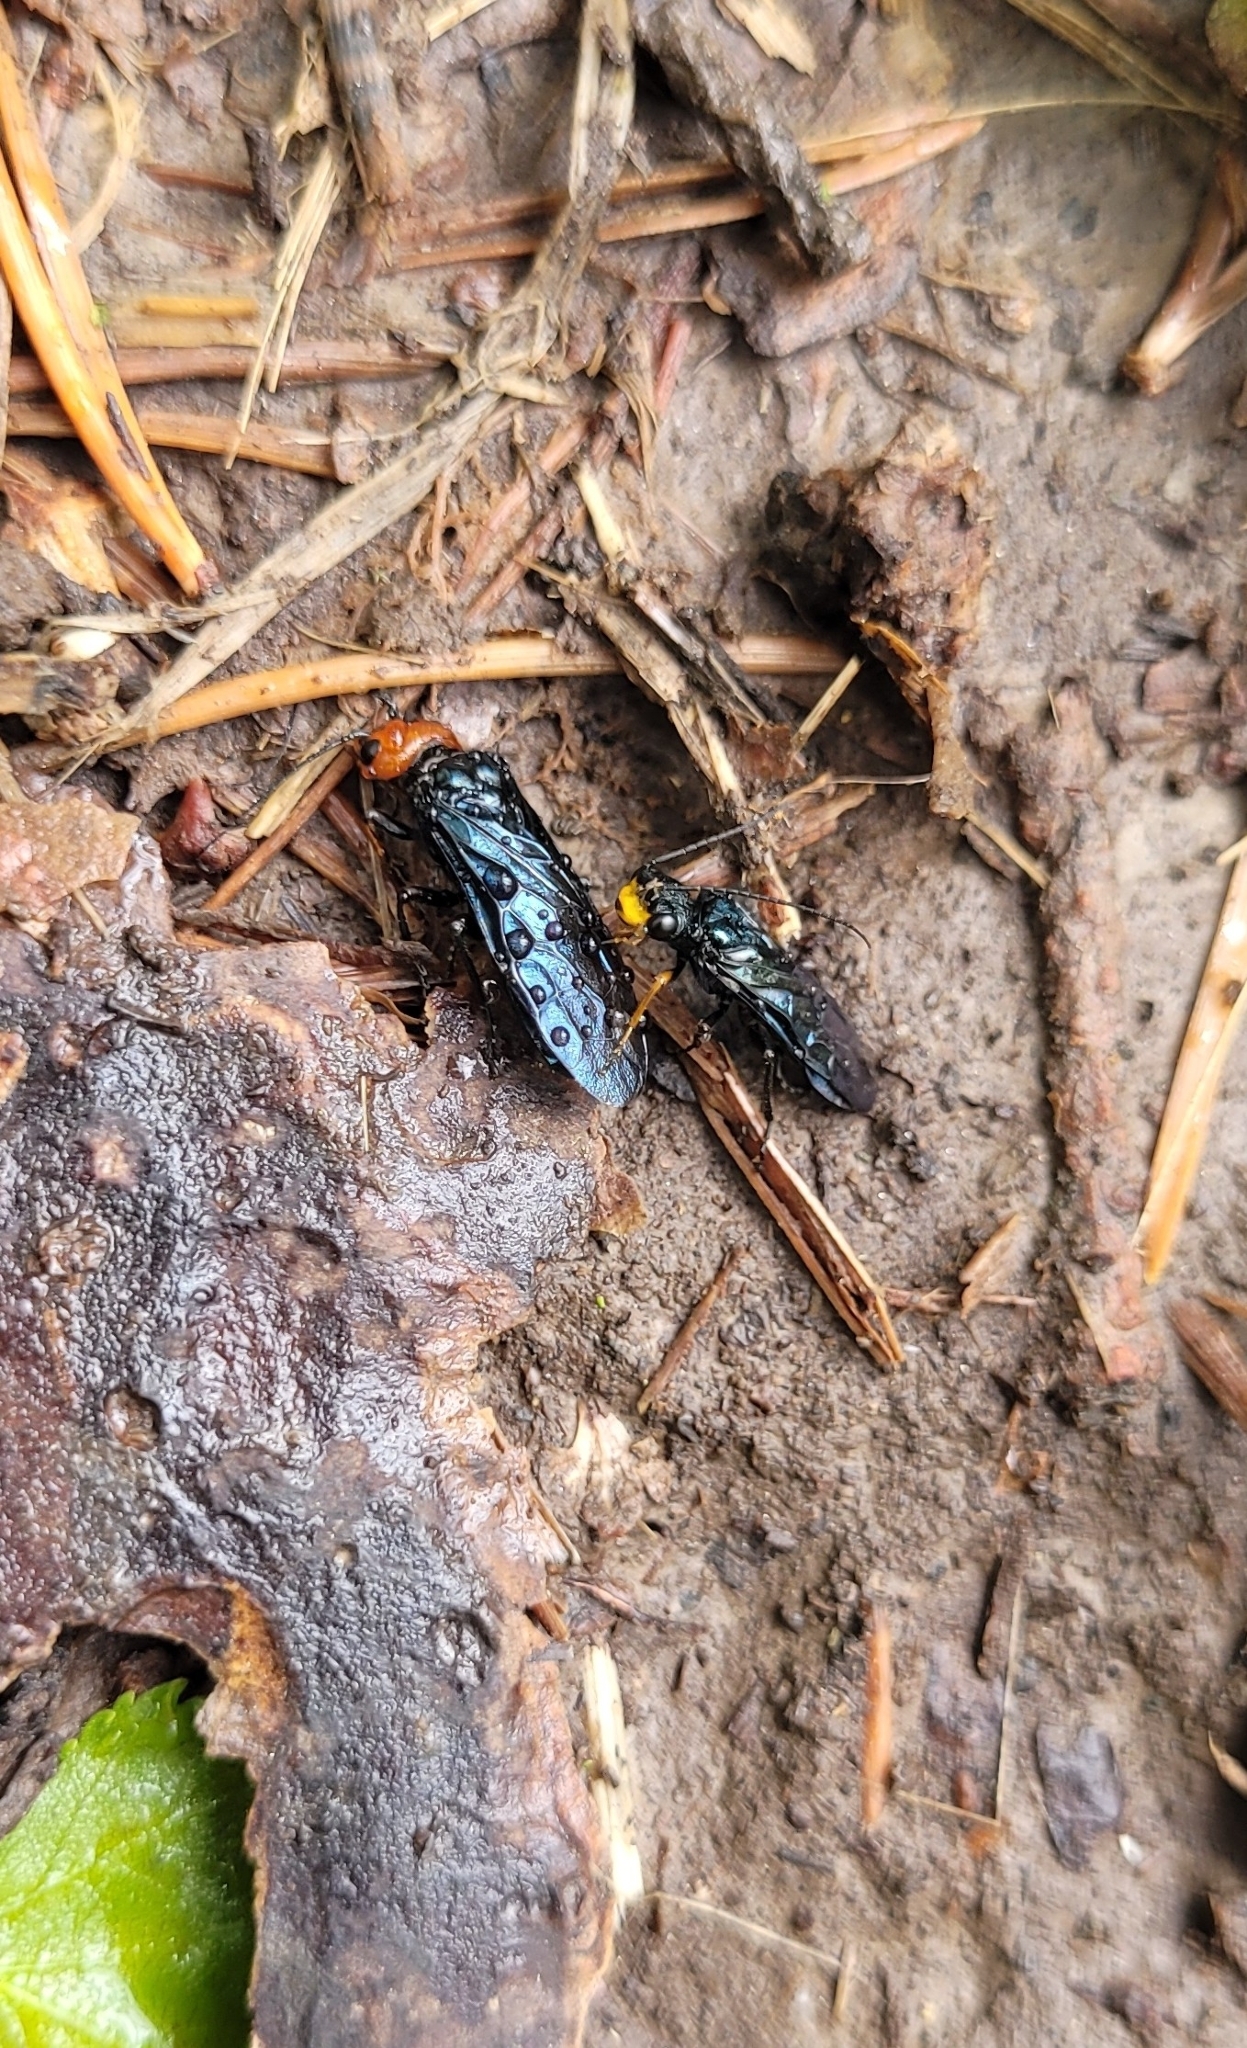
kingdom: Animalia
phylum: Arthropoda
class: Insecta
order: Hymenoptera
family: Pamphiliidae
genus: Acantholyda
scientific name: Acantholyda erythrocephala
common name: Pine false webworm
